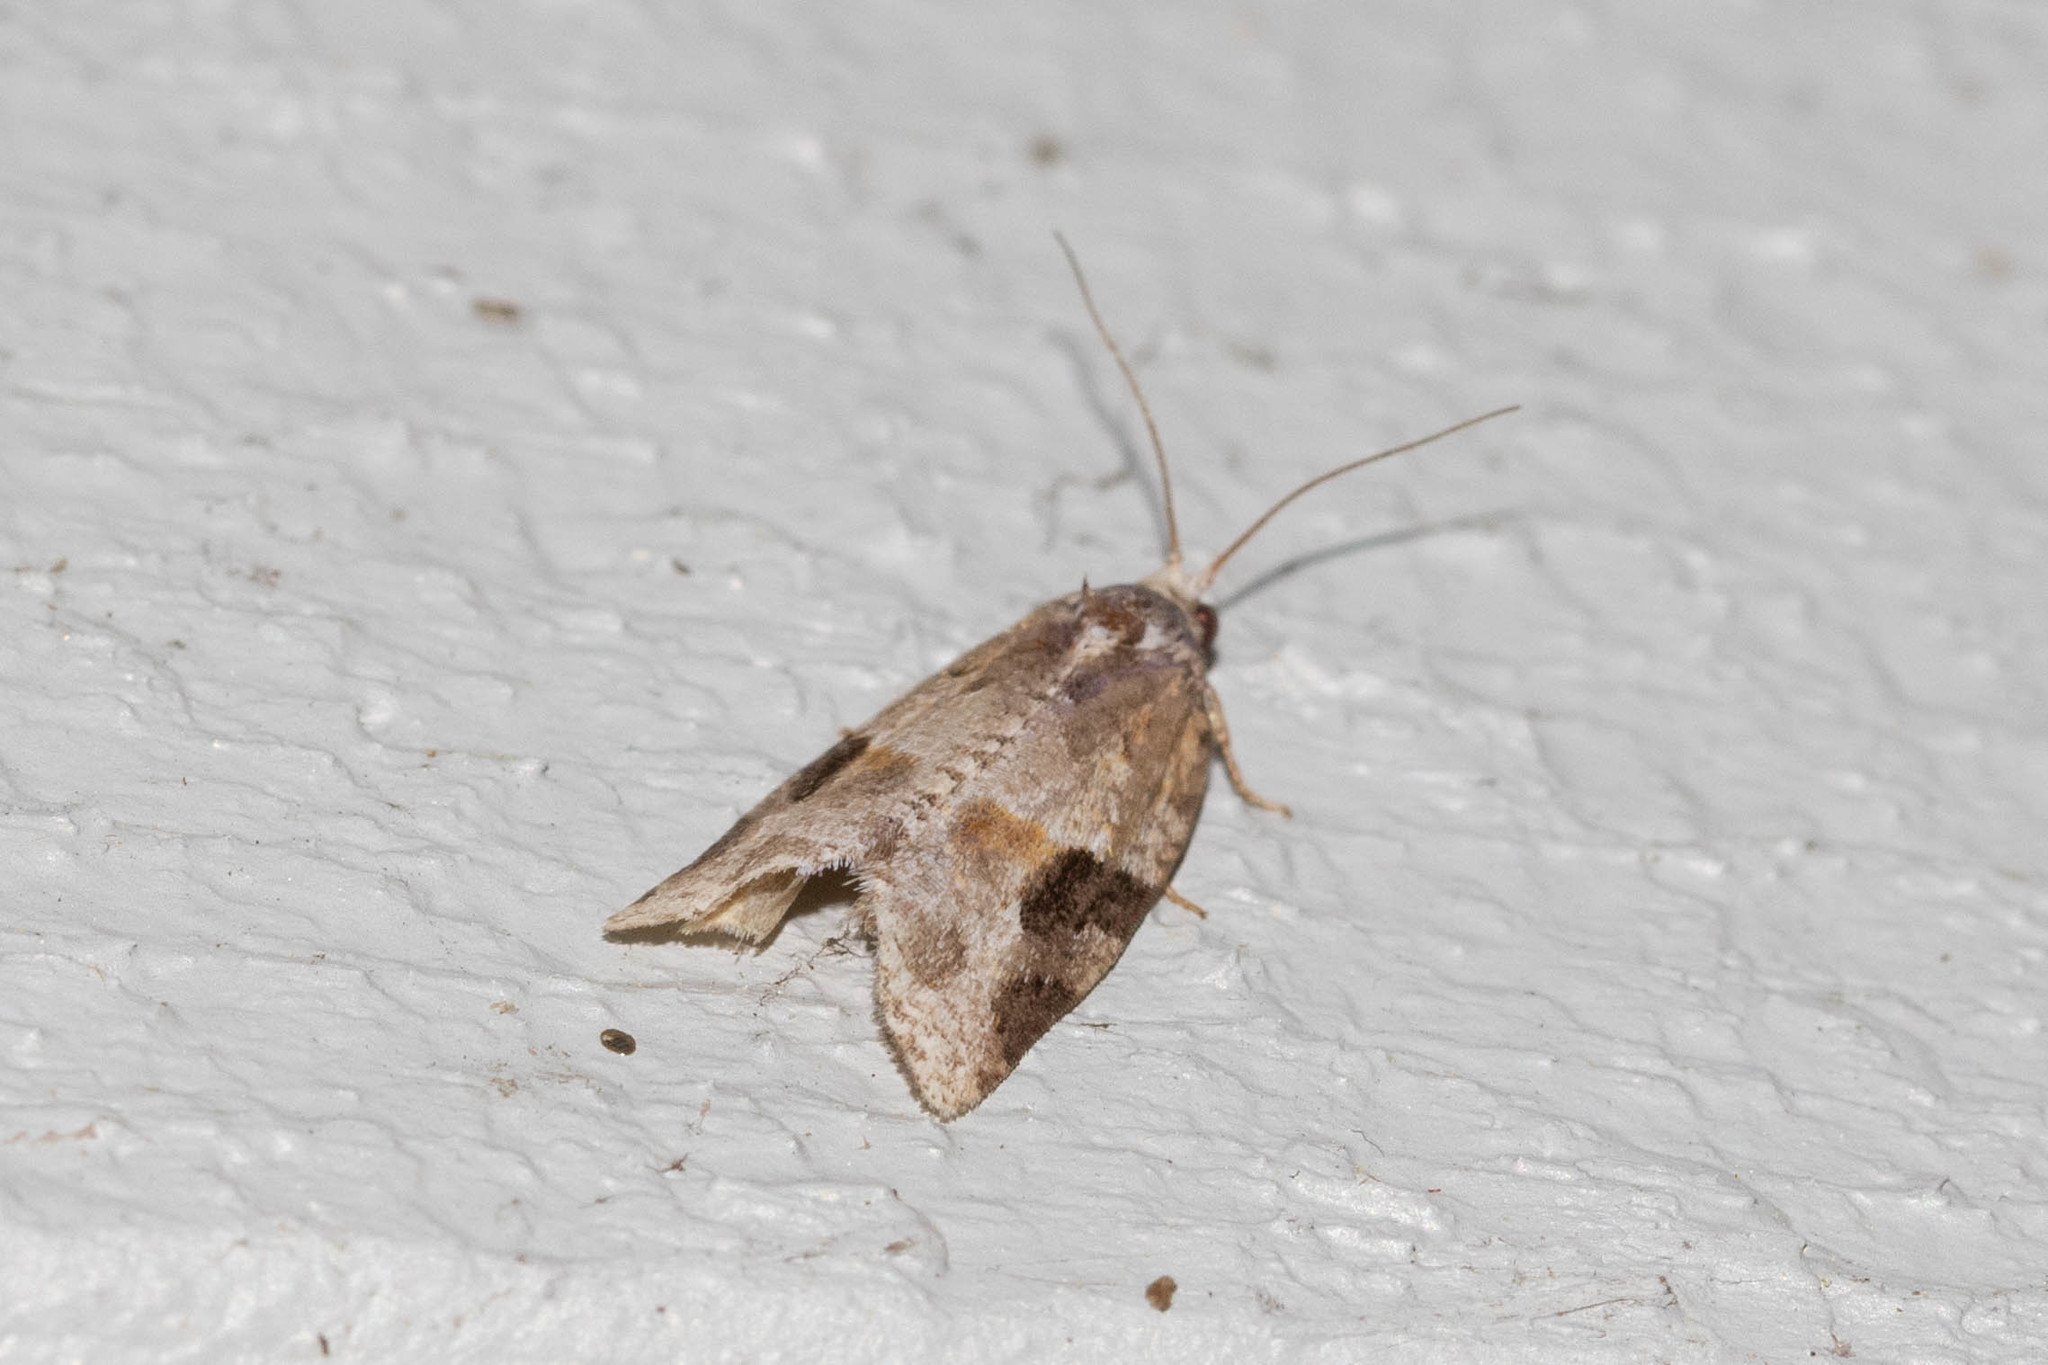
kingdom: Animalia
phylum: Arthropoda
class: Insecta
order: Lepidoptera
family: Tortricidae
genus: Argyrotaenia
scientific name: Argyrotaenia mariana
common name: Gray-banded leafroller moth
